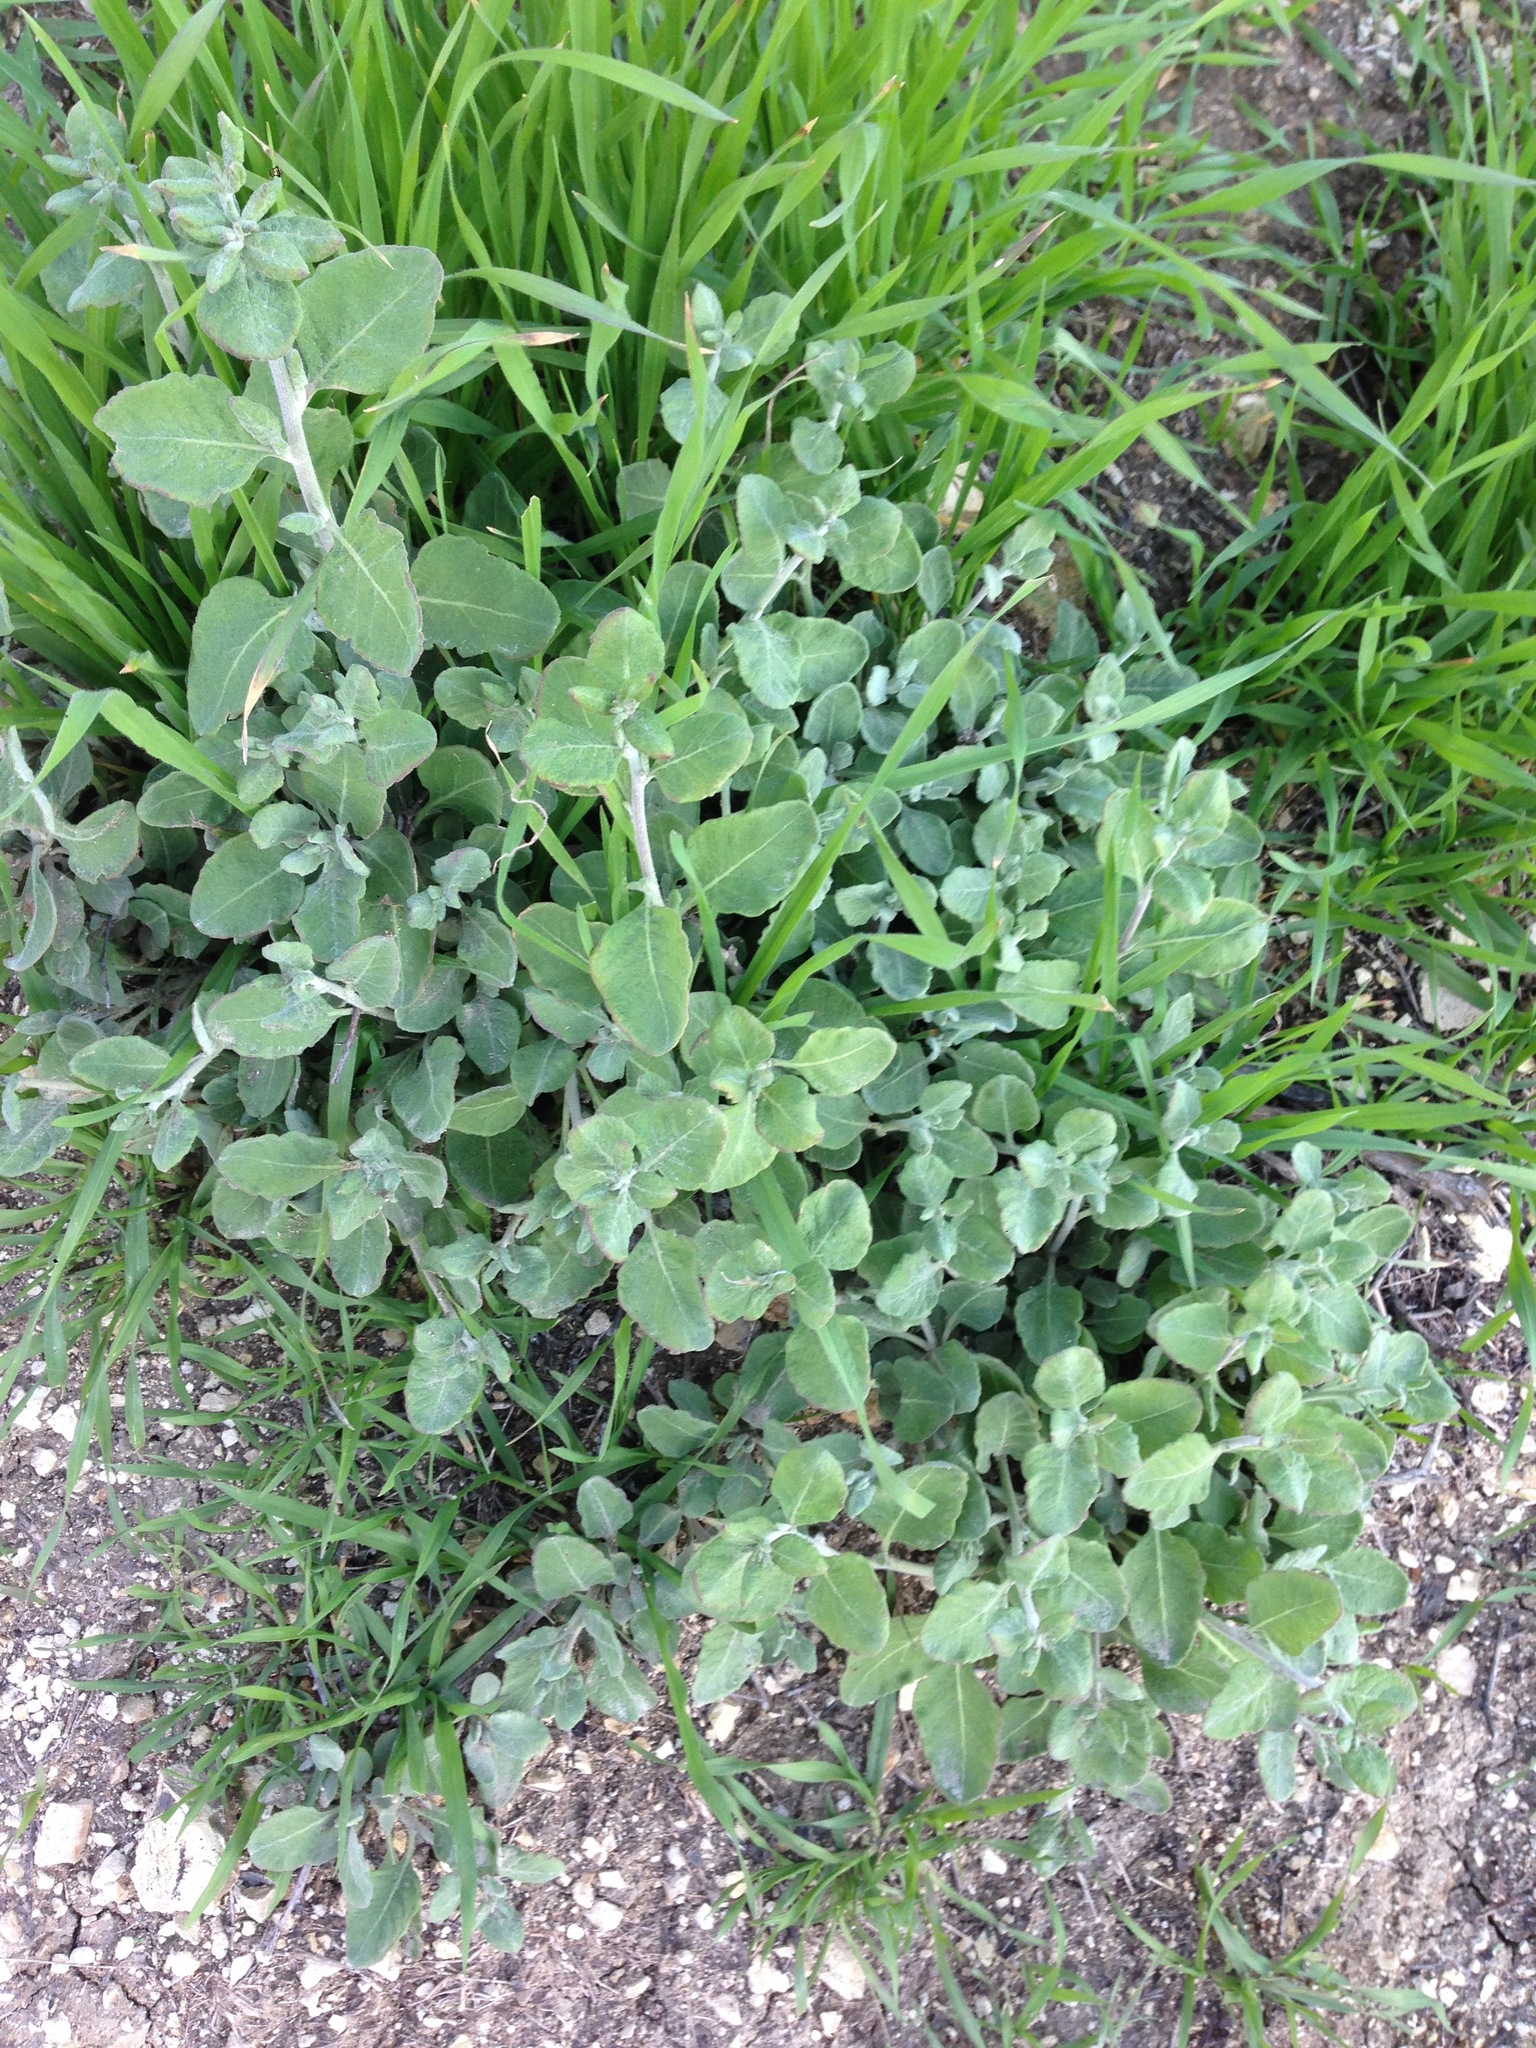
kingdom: Plantae
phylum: Tracheophyta
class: Magnoliopsida
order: Caryophyllales
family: Polygonaceae
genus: Eriogonum
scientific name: Eriogonum cinereum
